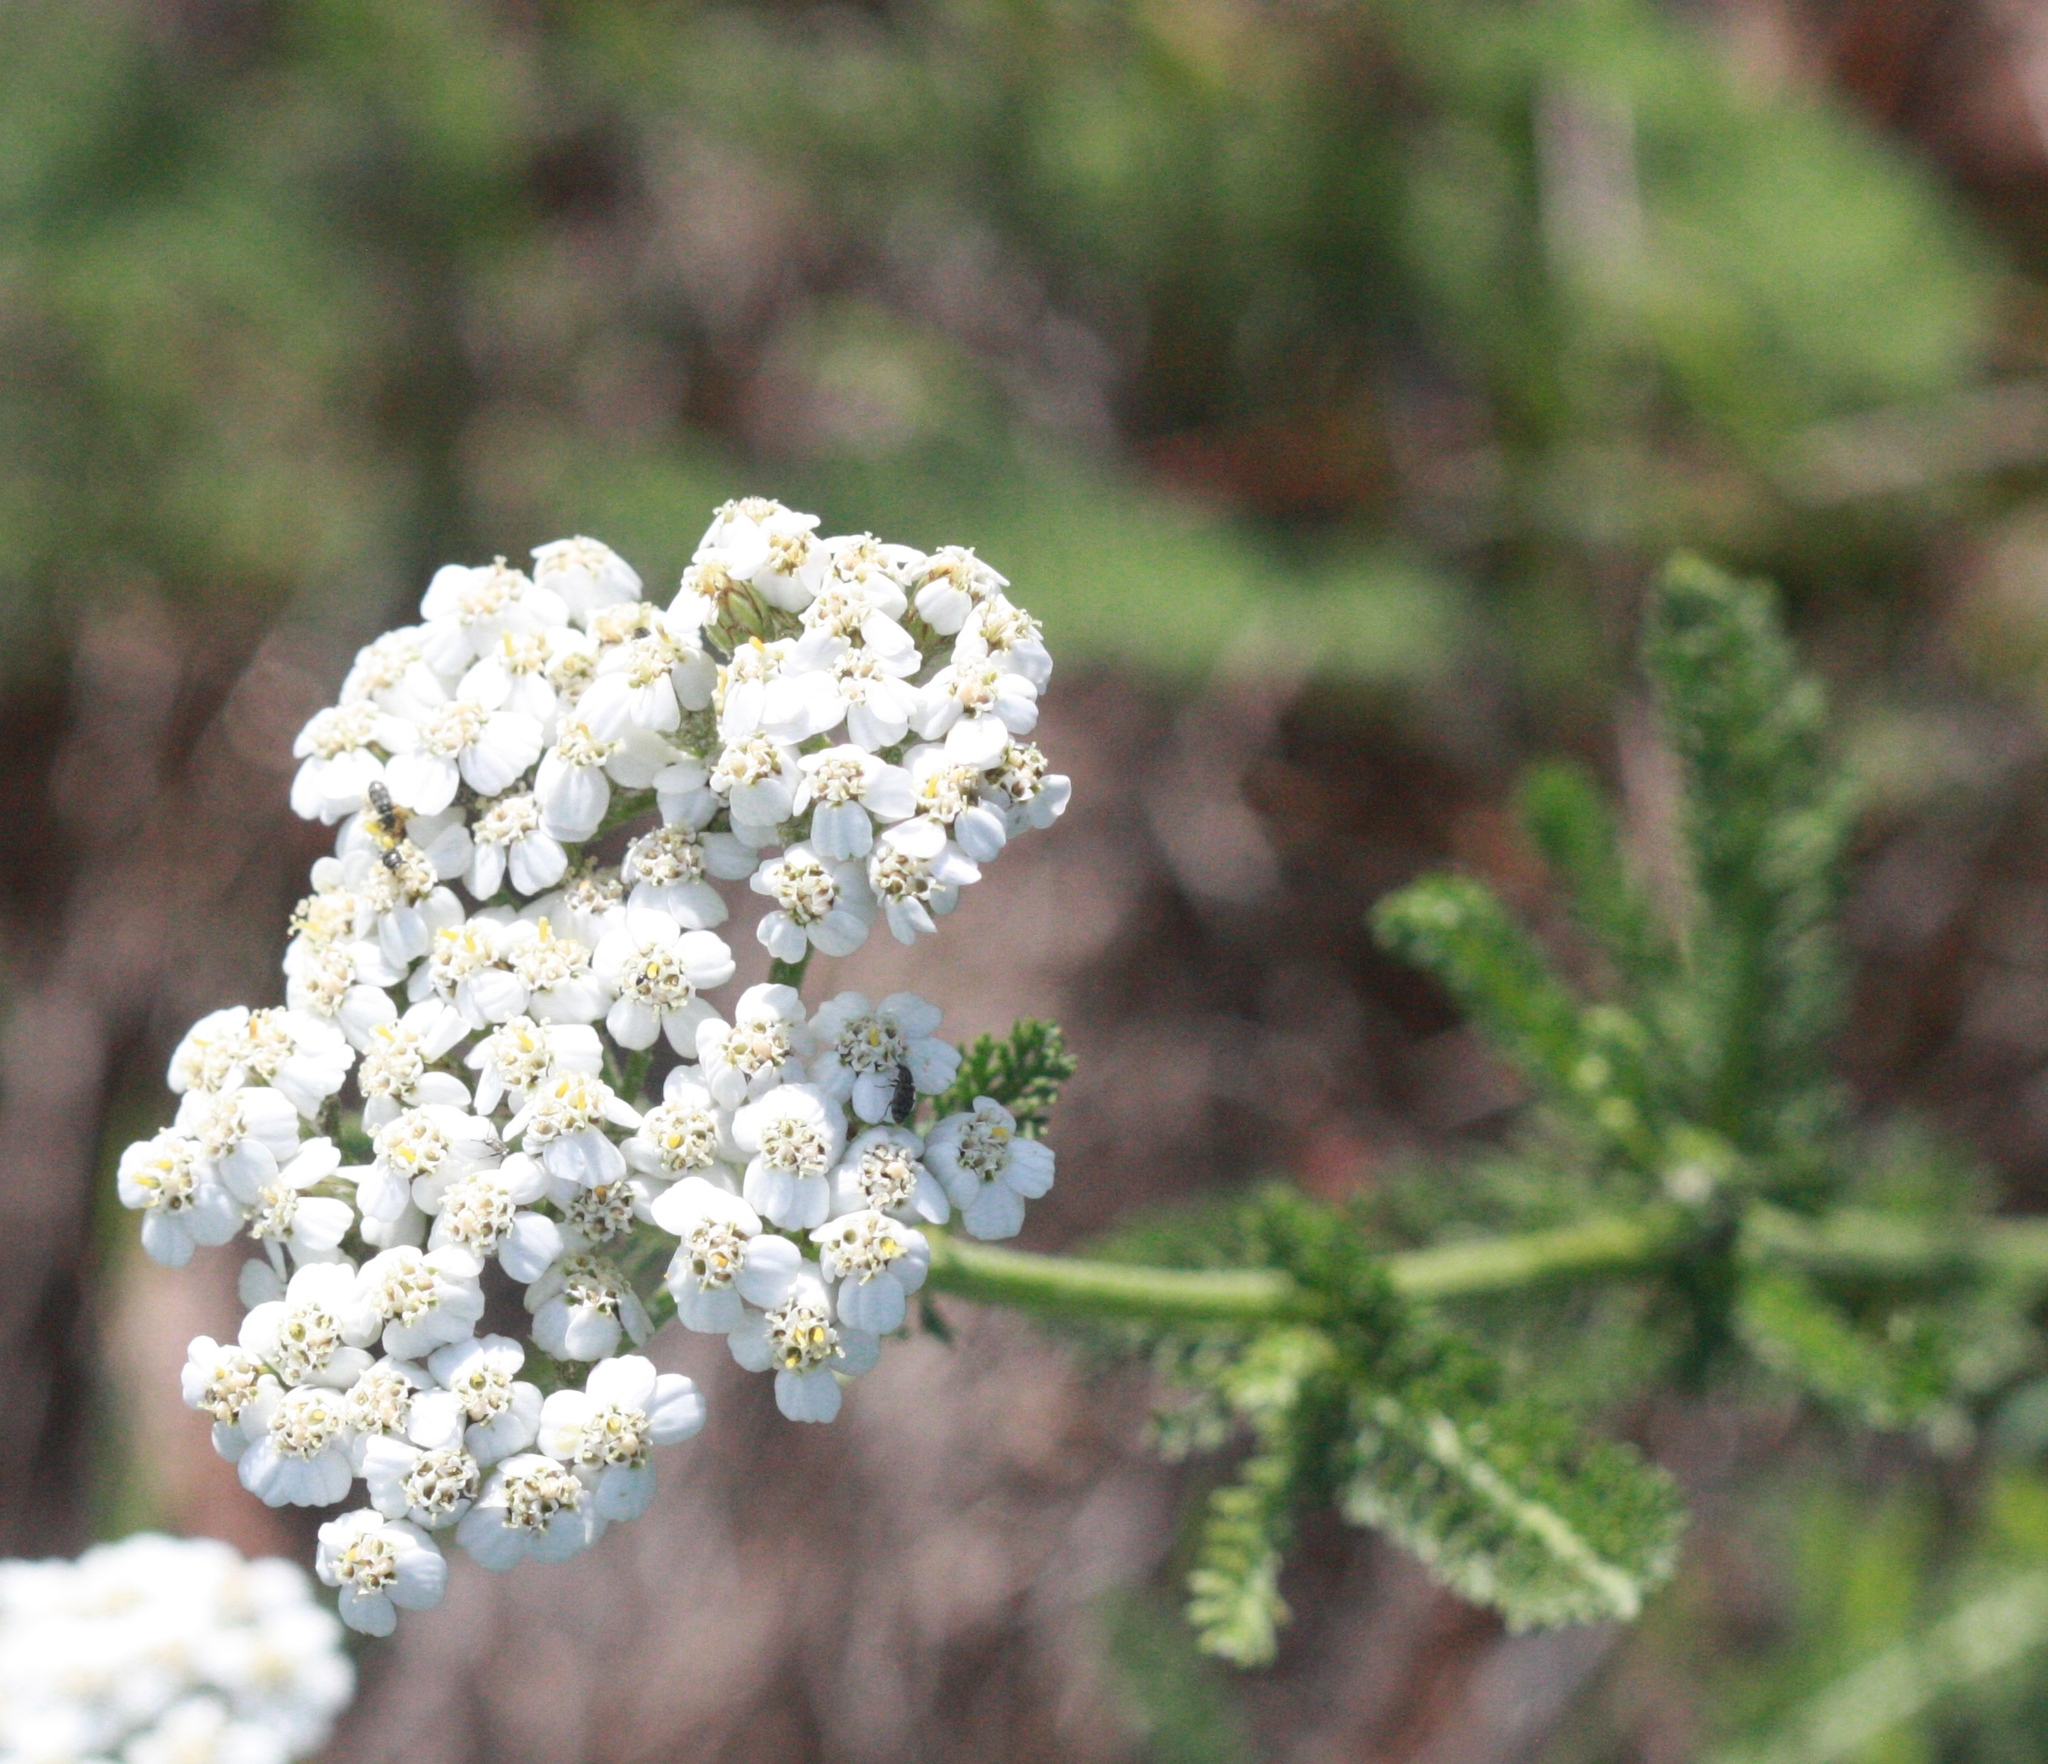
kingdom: Plantae
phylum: Tracheophyta
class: Magnoliopsida
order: Asterales
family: Asteraceae
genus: Achillea
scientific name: Achillea millefolium
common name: Yarrow
